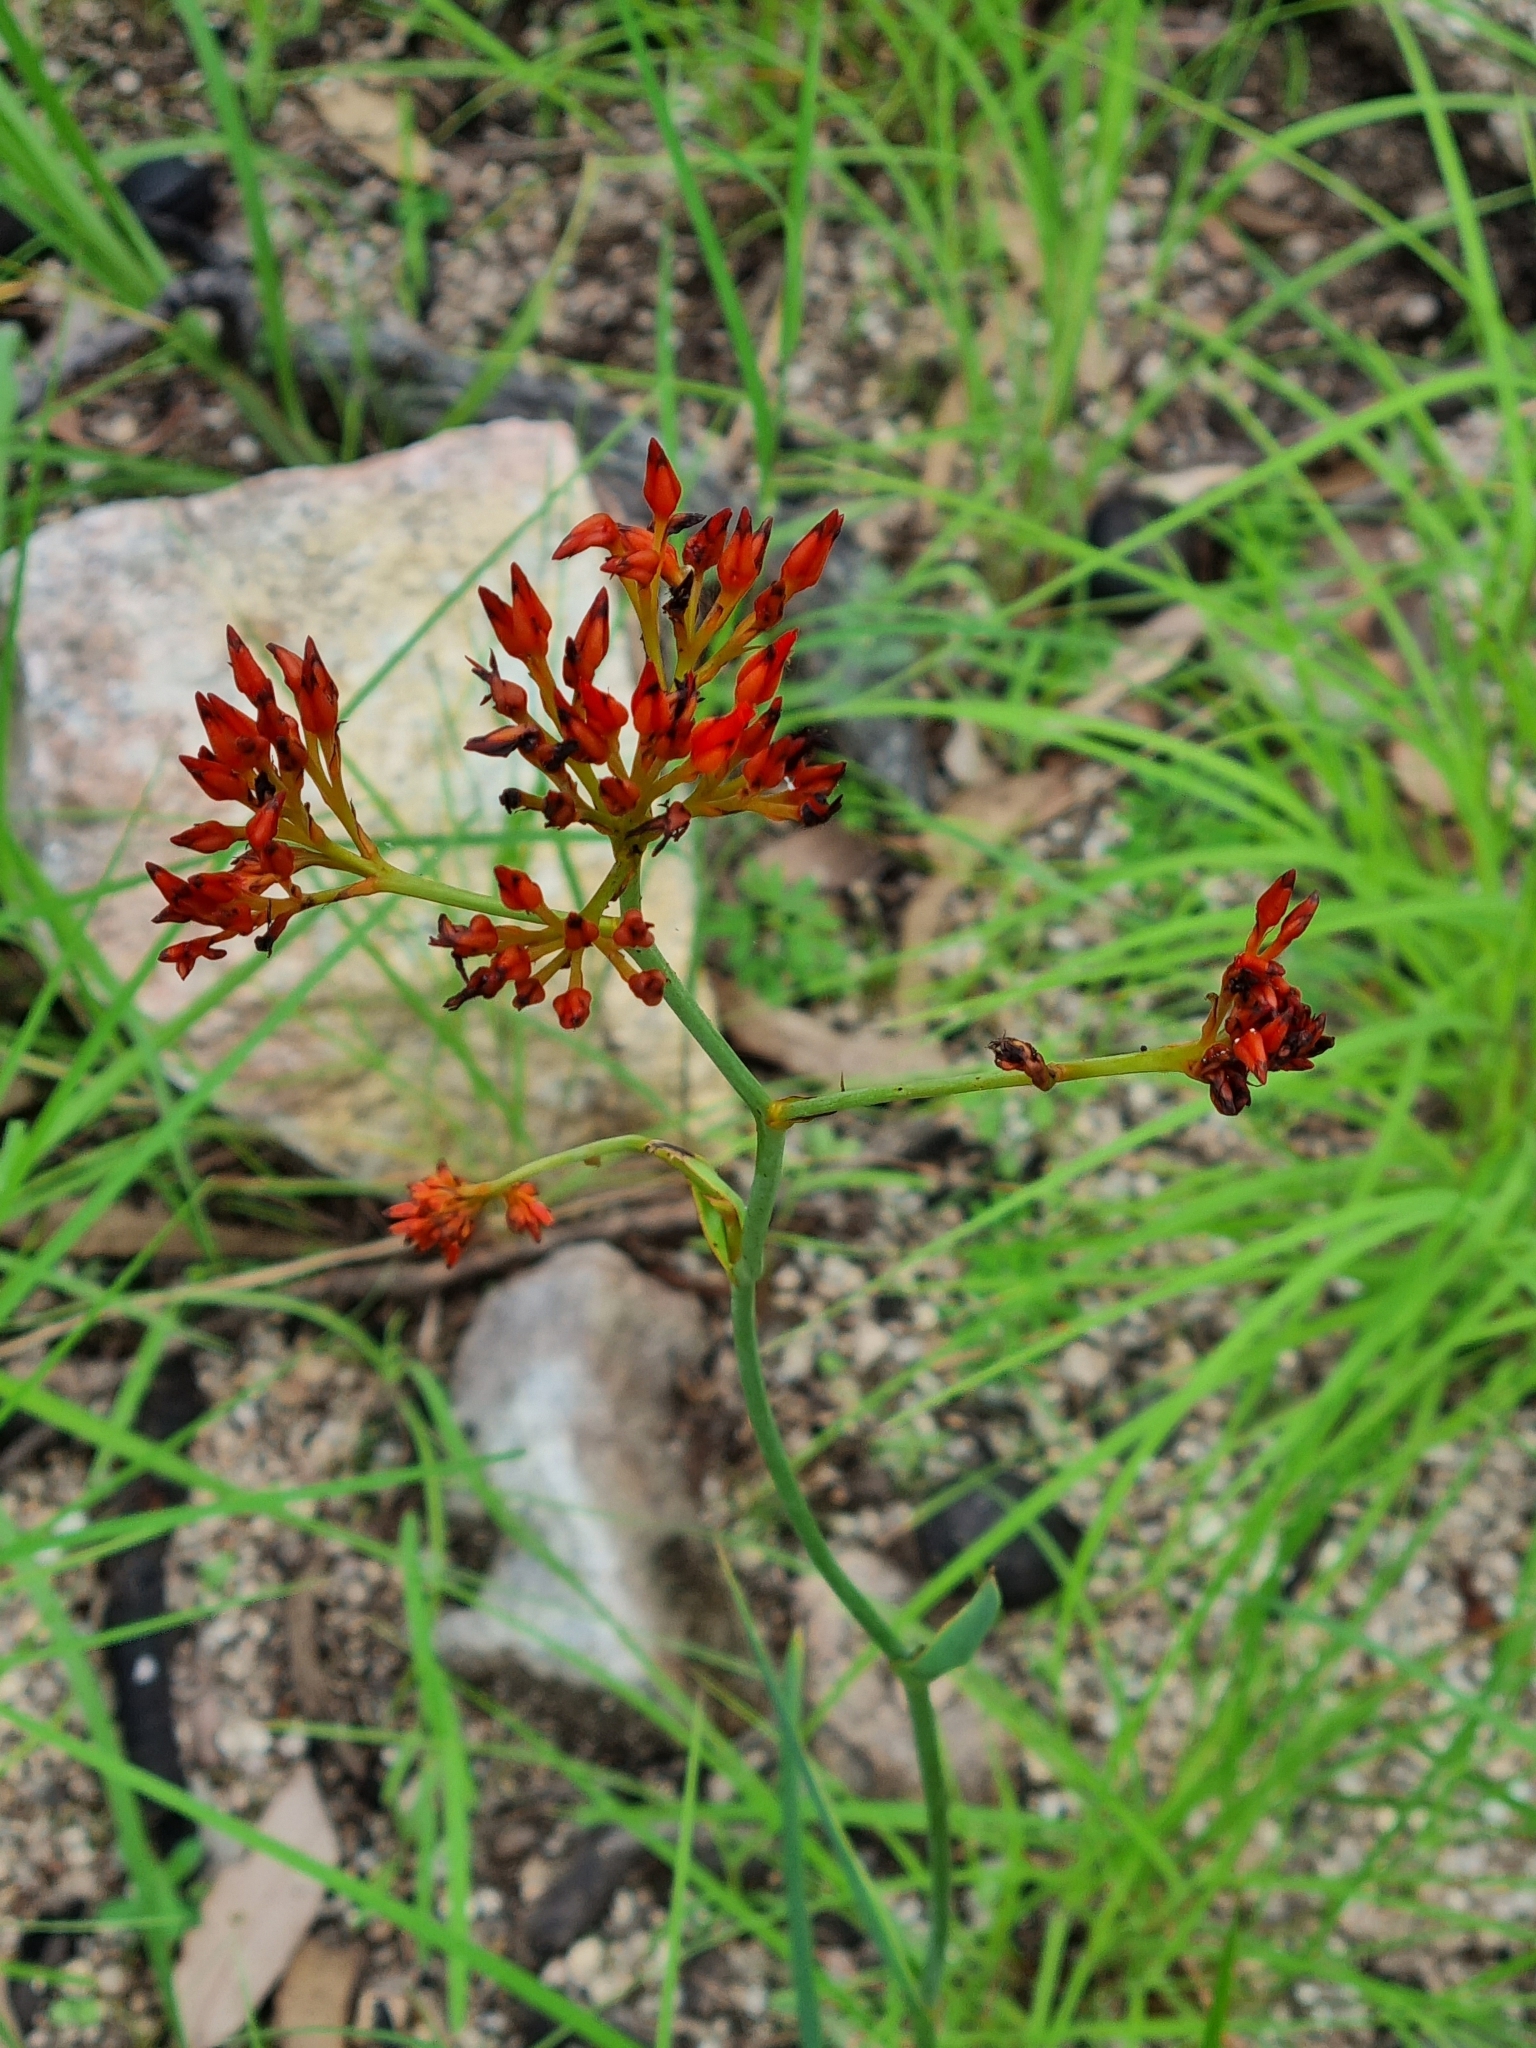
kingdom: Plantae
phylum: Tracheophyta
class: Liliopsida
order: Commelinales
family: Haemodoraceae
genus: Haemodorum
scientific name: Haemodorum coccineum
